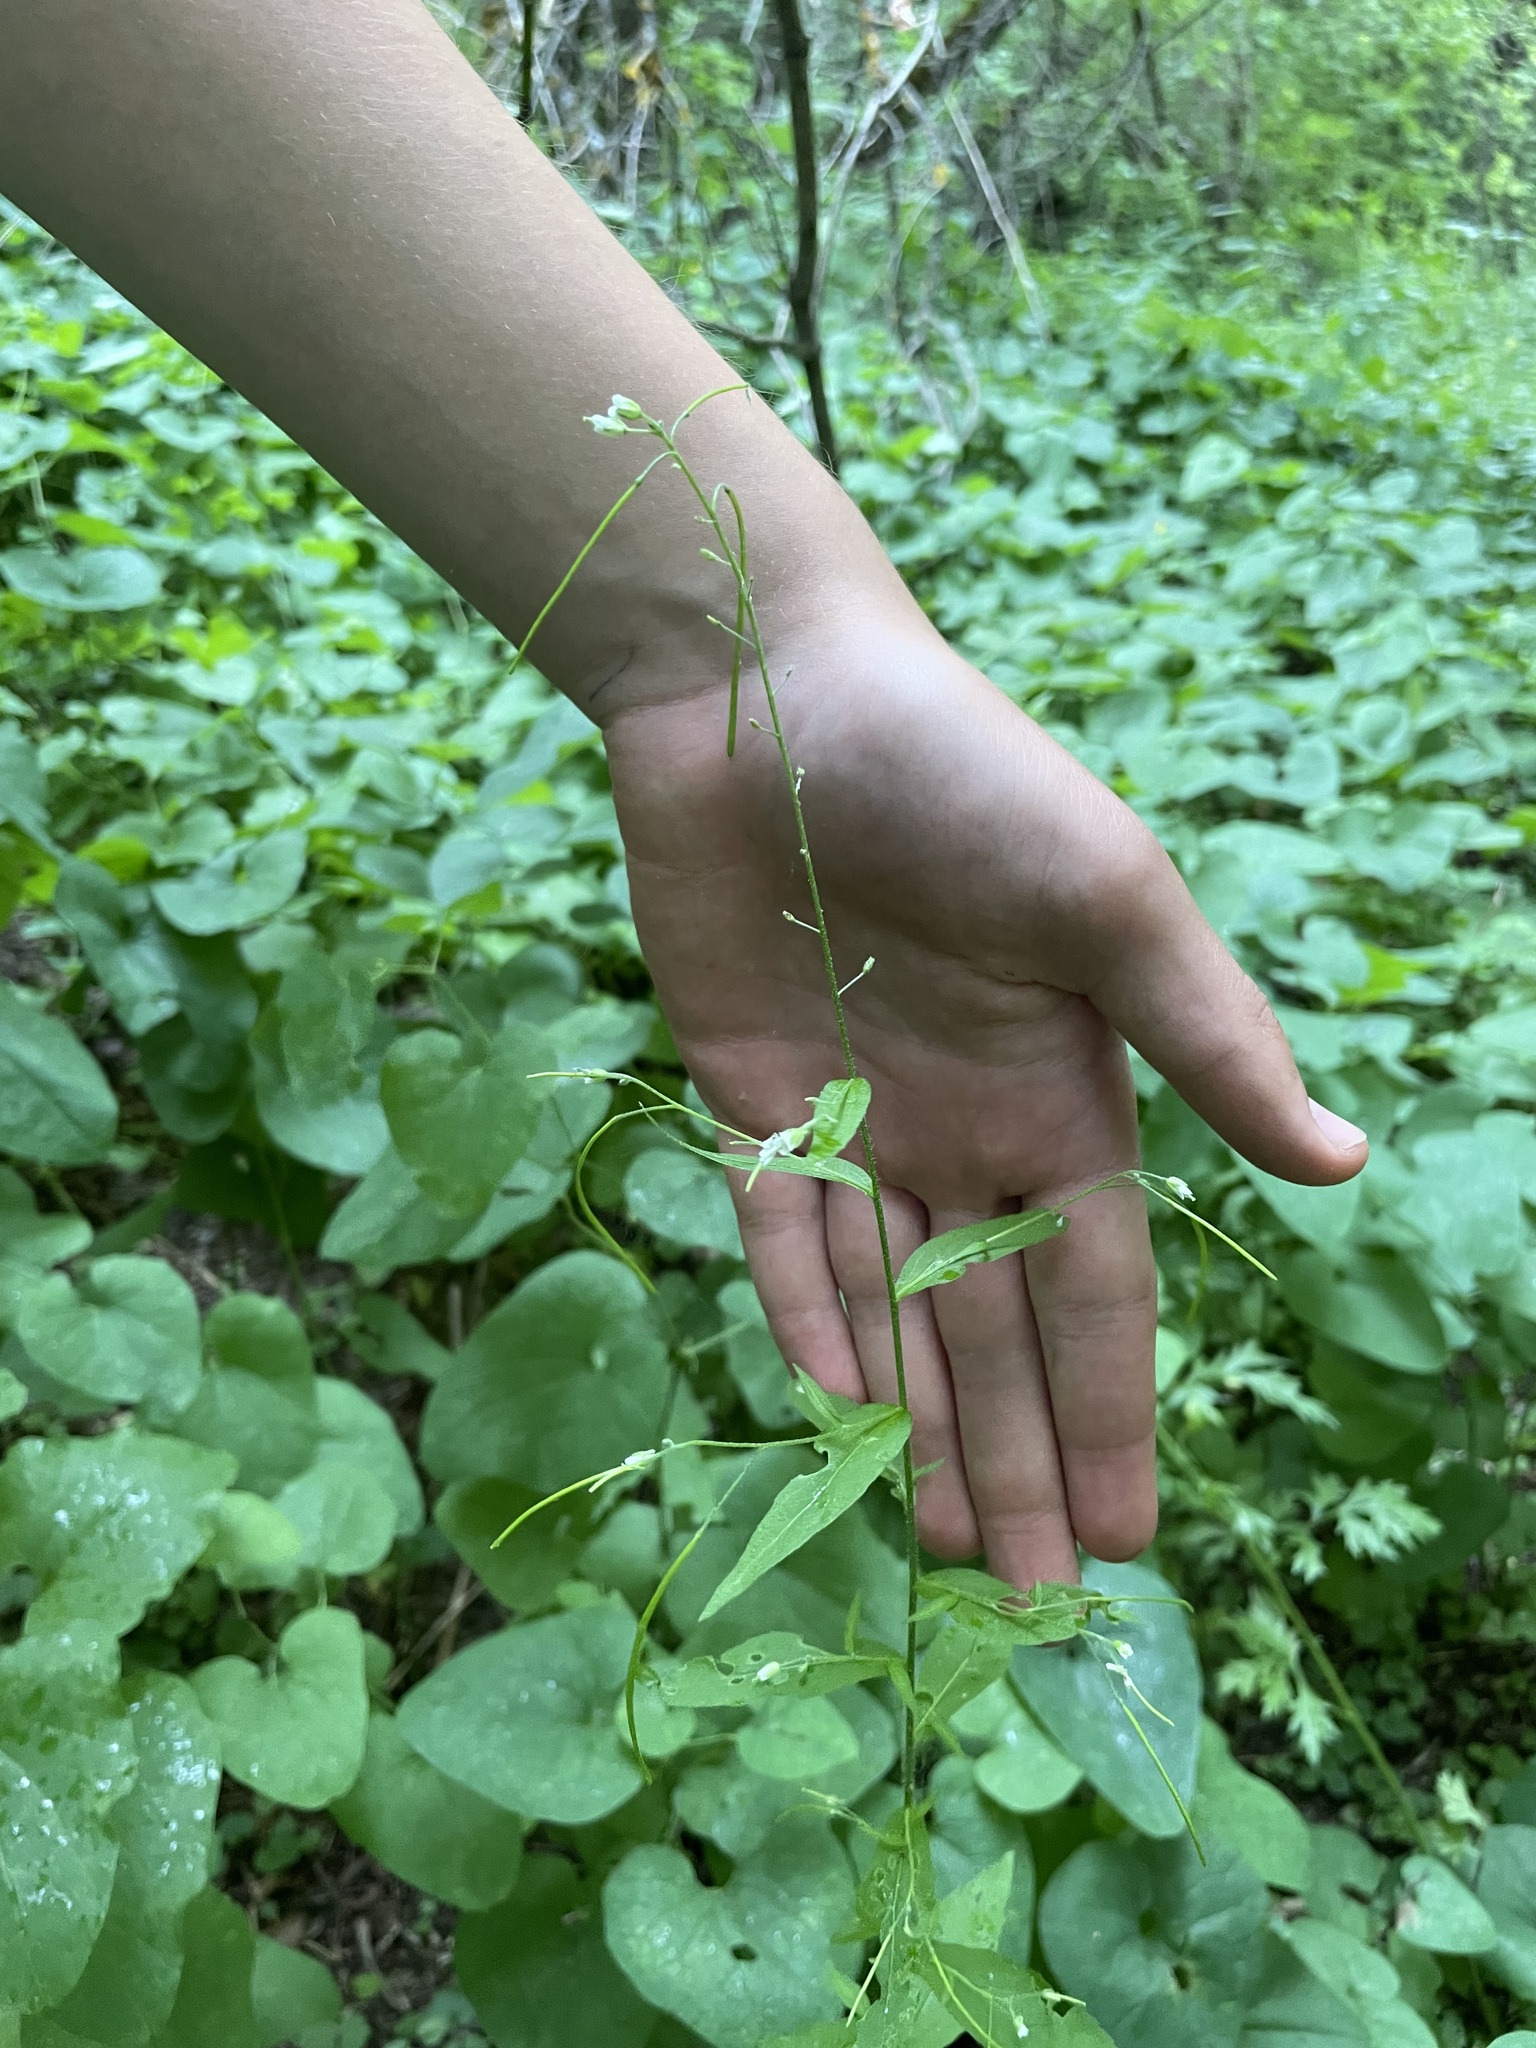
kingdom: Plantae
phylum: Tracheophyta
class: Magnoliopsida
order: Brassicales
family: Brassicaceae
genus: Catolobus
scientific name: Catolobus pendulus
